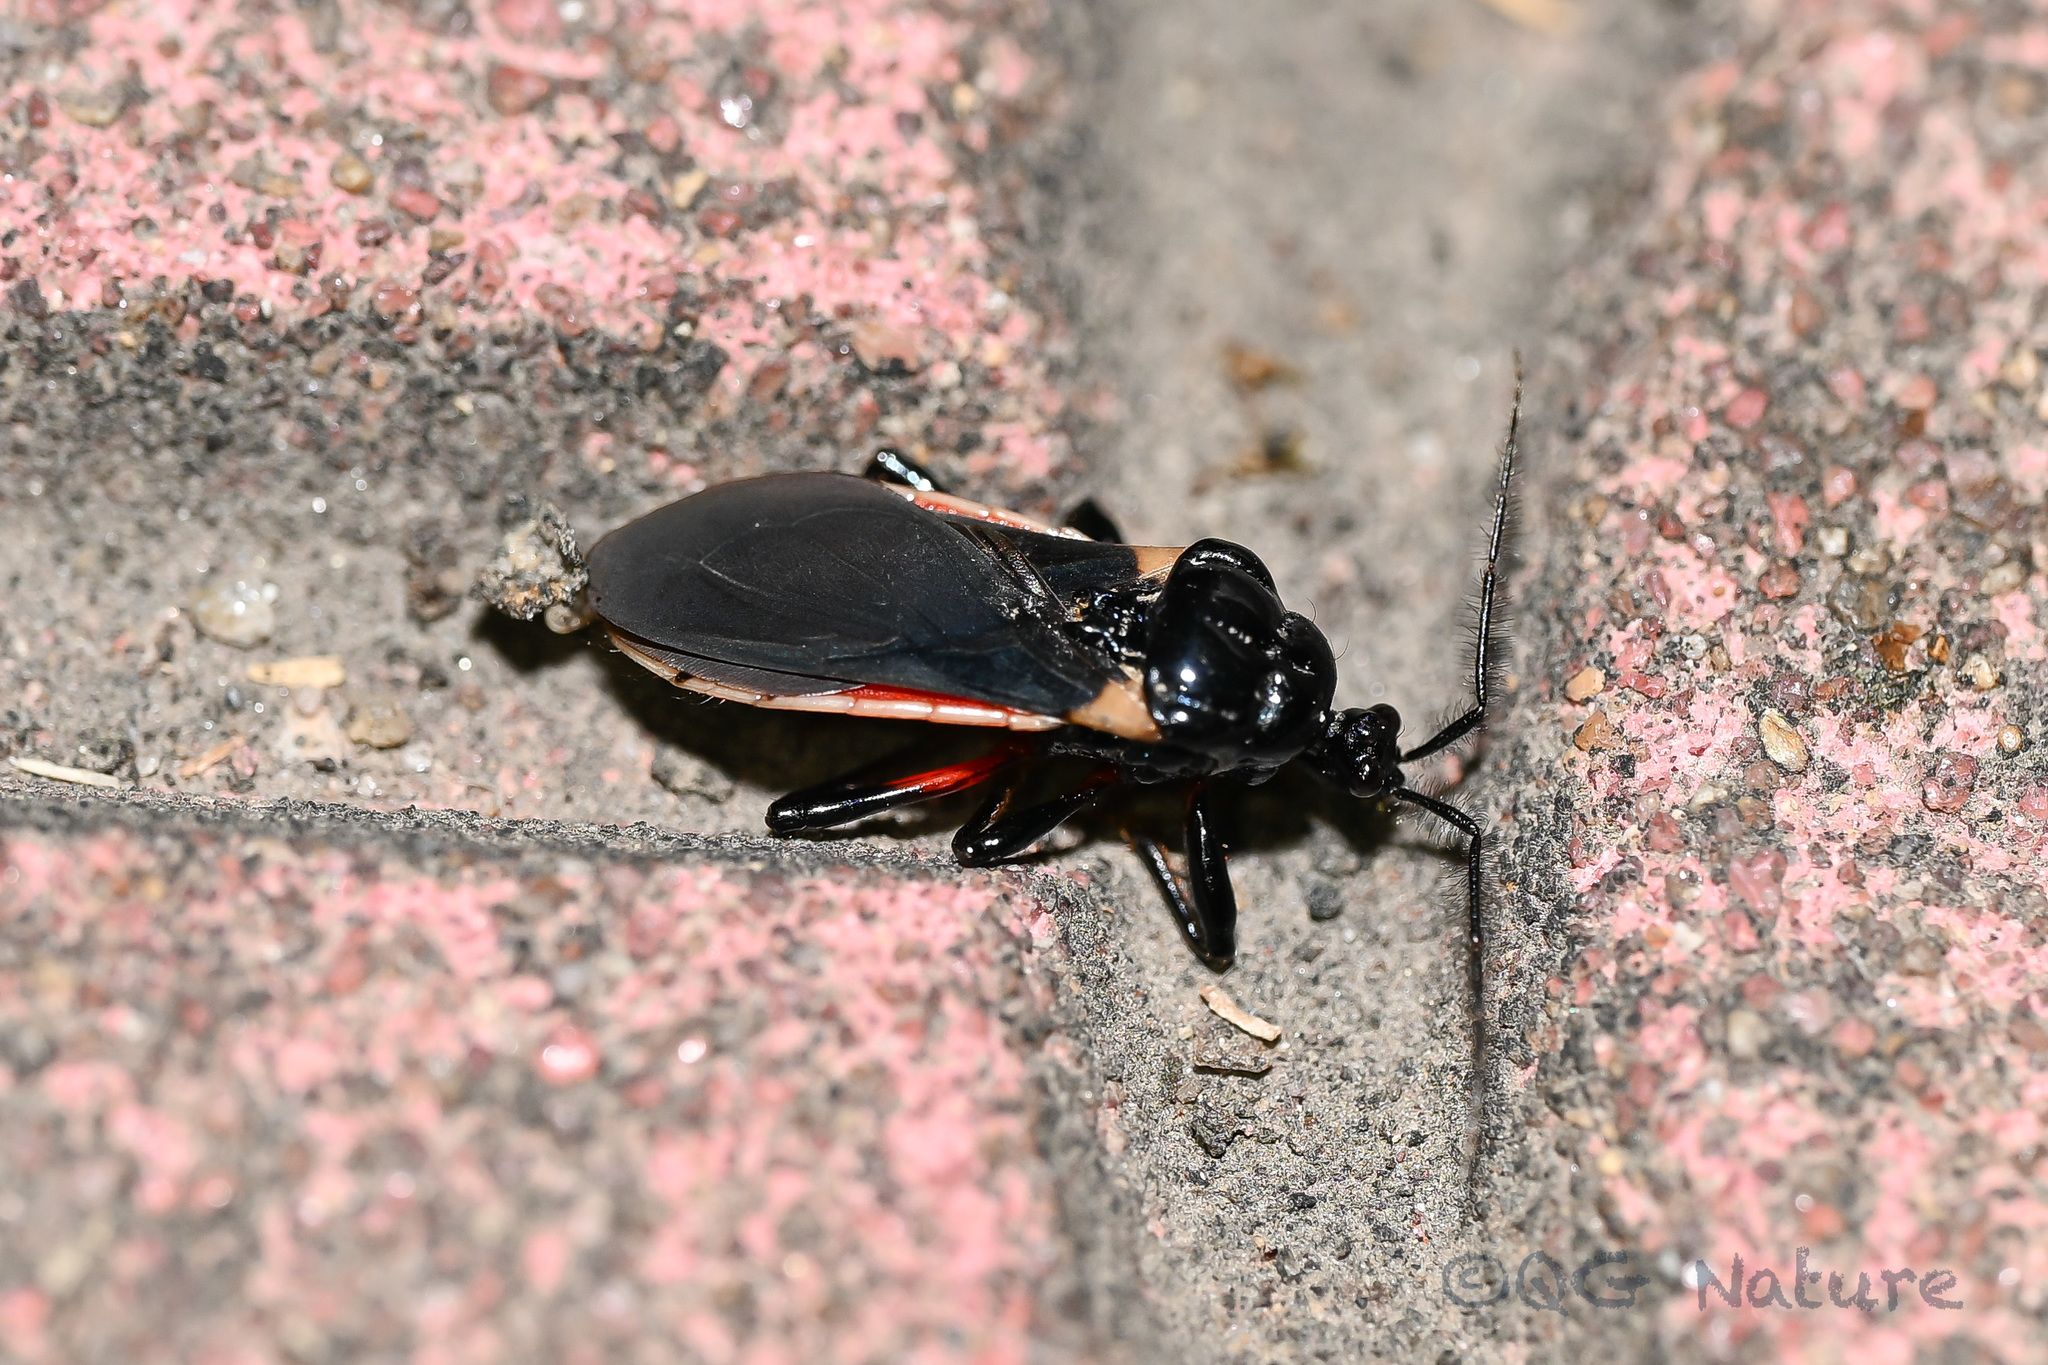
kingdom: Animalia
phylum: Arthropoda
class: Insecta
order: Hemiptera
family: Reduviidae
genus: Ectrychotes
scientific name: Ectrychotes andreae
